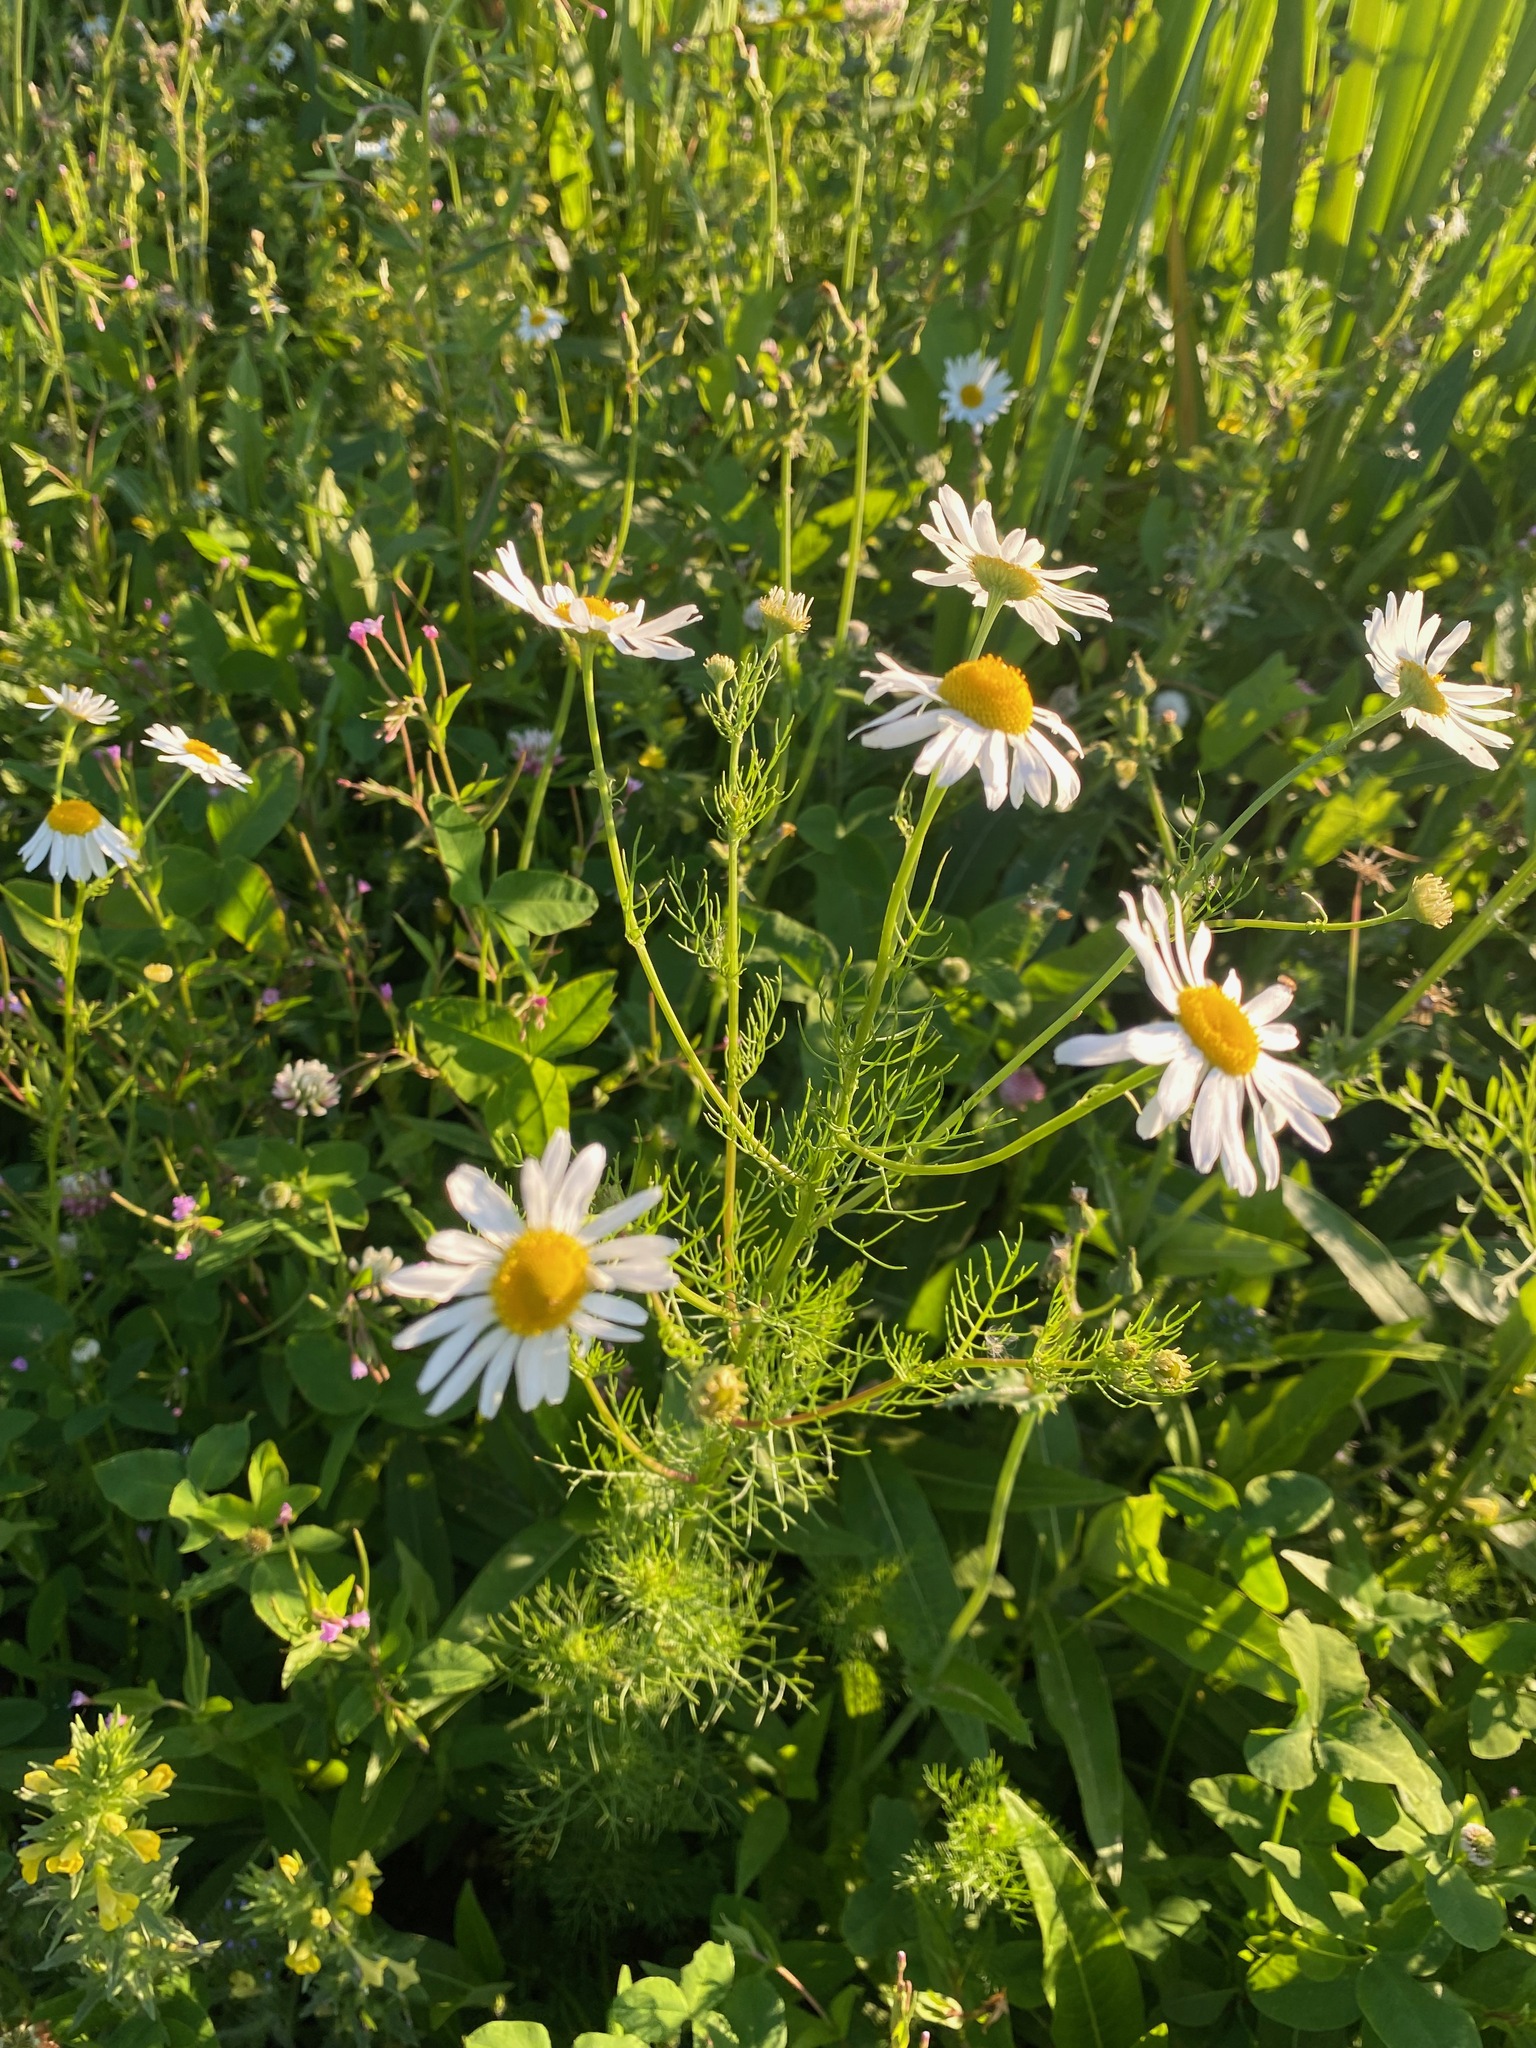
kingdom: Plantae
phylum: Tracheophyta
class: Magnoliopsida
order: Asterales
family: Asteraceae
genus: Tripleurospermum
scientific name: Tripleurospermum inodorum
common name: Scentless mayweed
